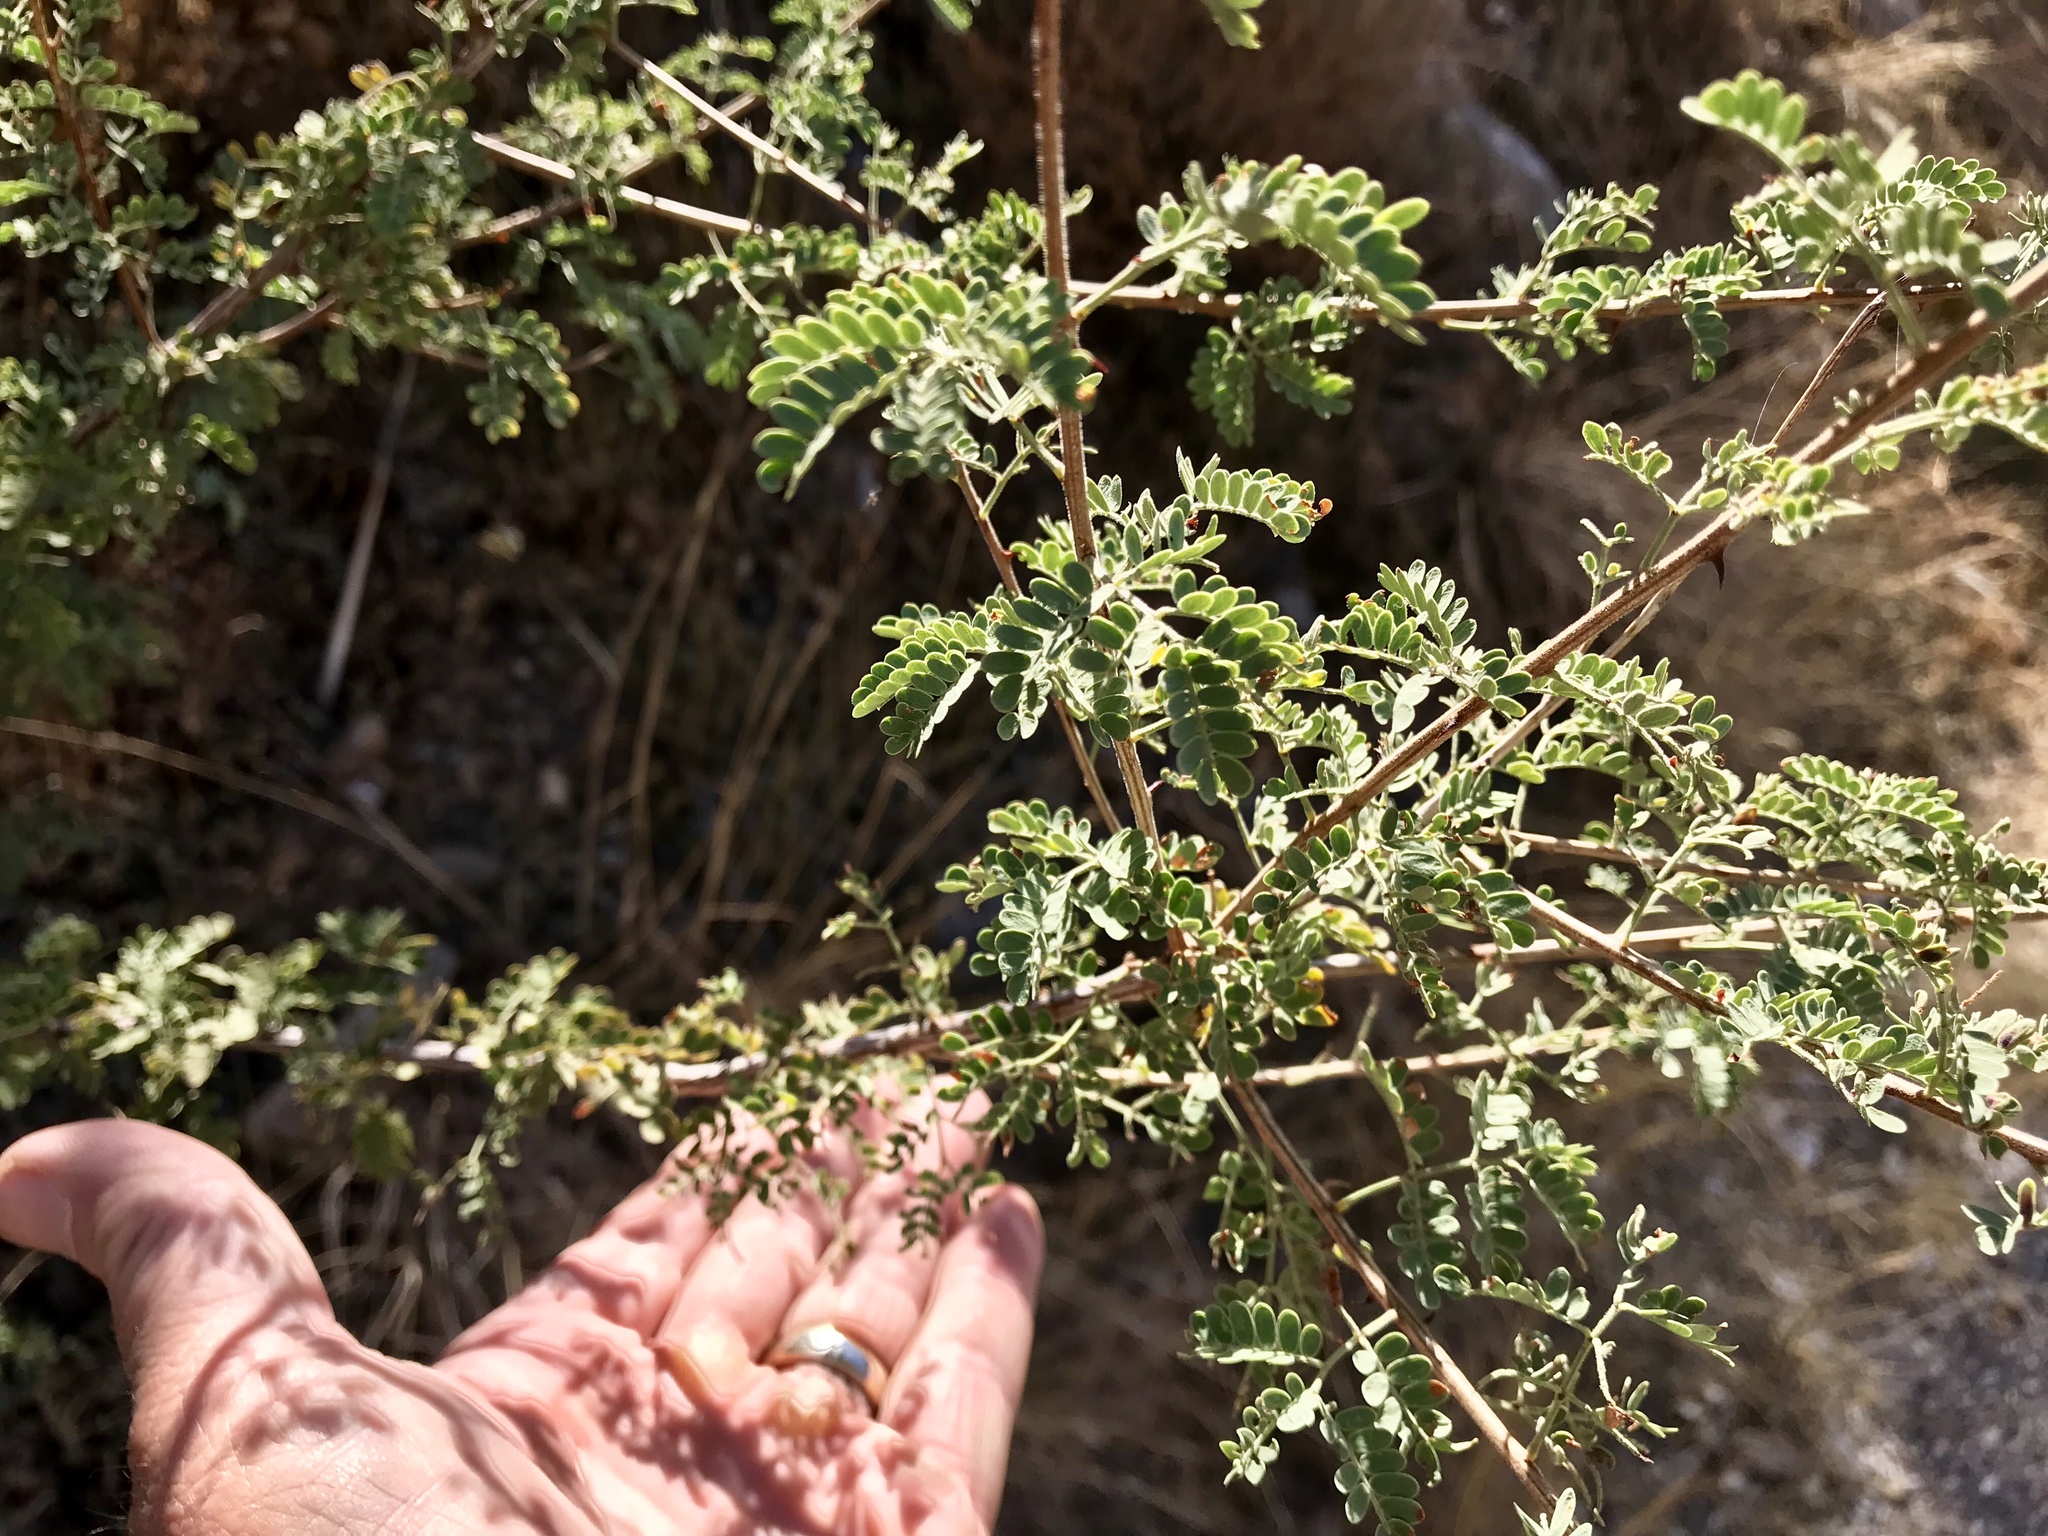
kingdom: Plantae
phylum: Tracheophyta
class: Magnoliopsida
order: Fabales
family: Fabaceae
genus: Senegalia
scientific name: Senegalia greggii
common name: Texas-mimosa
